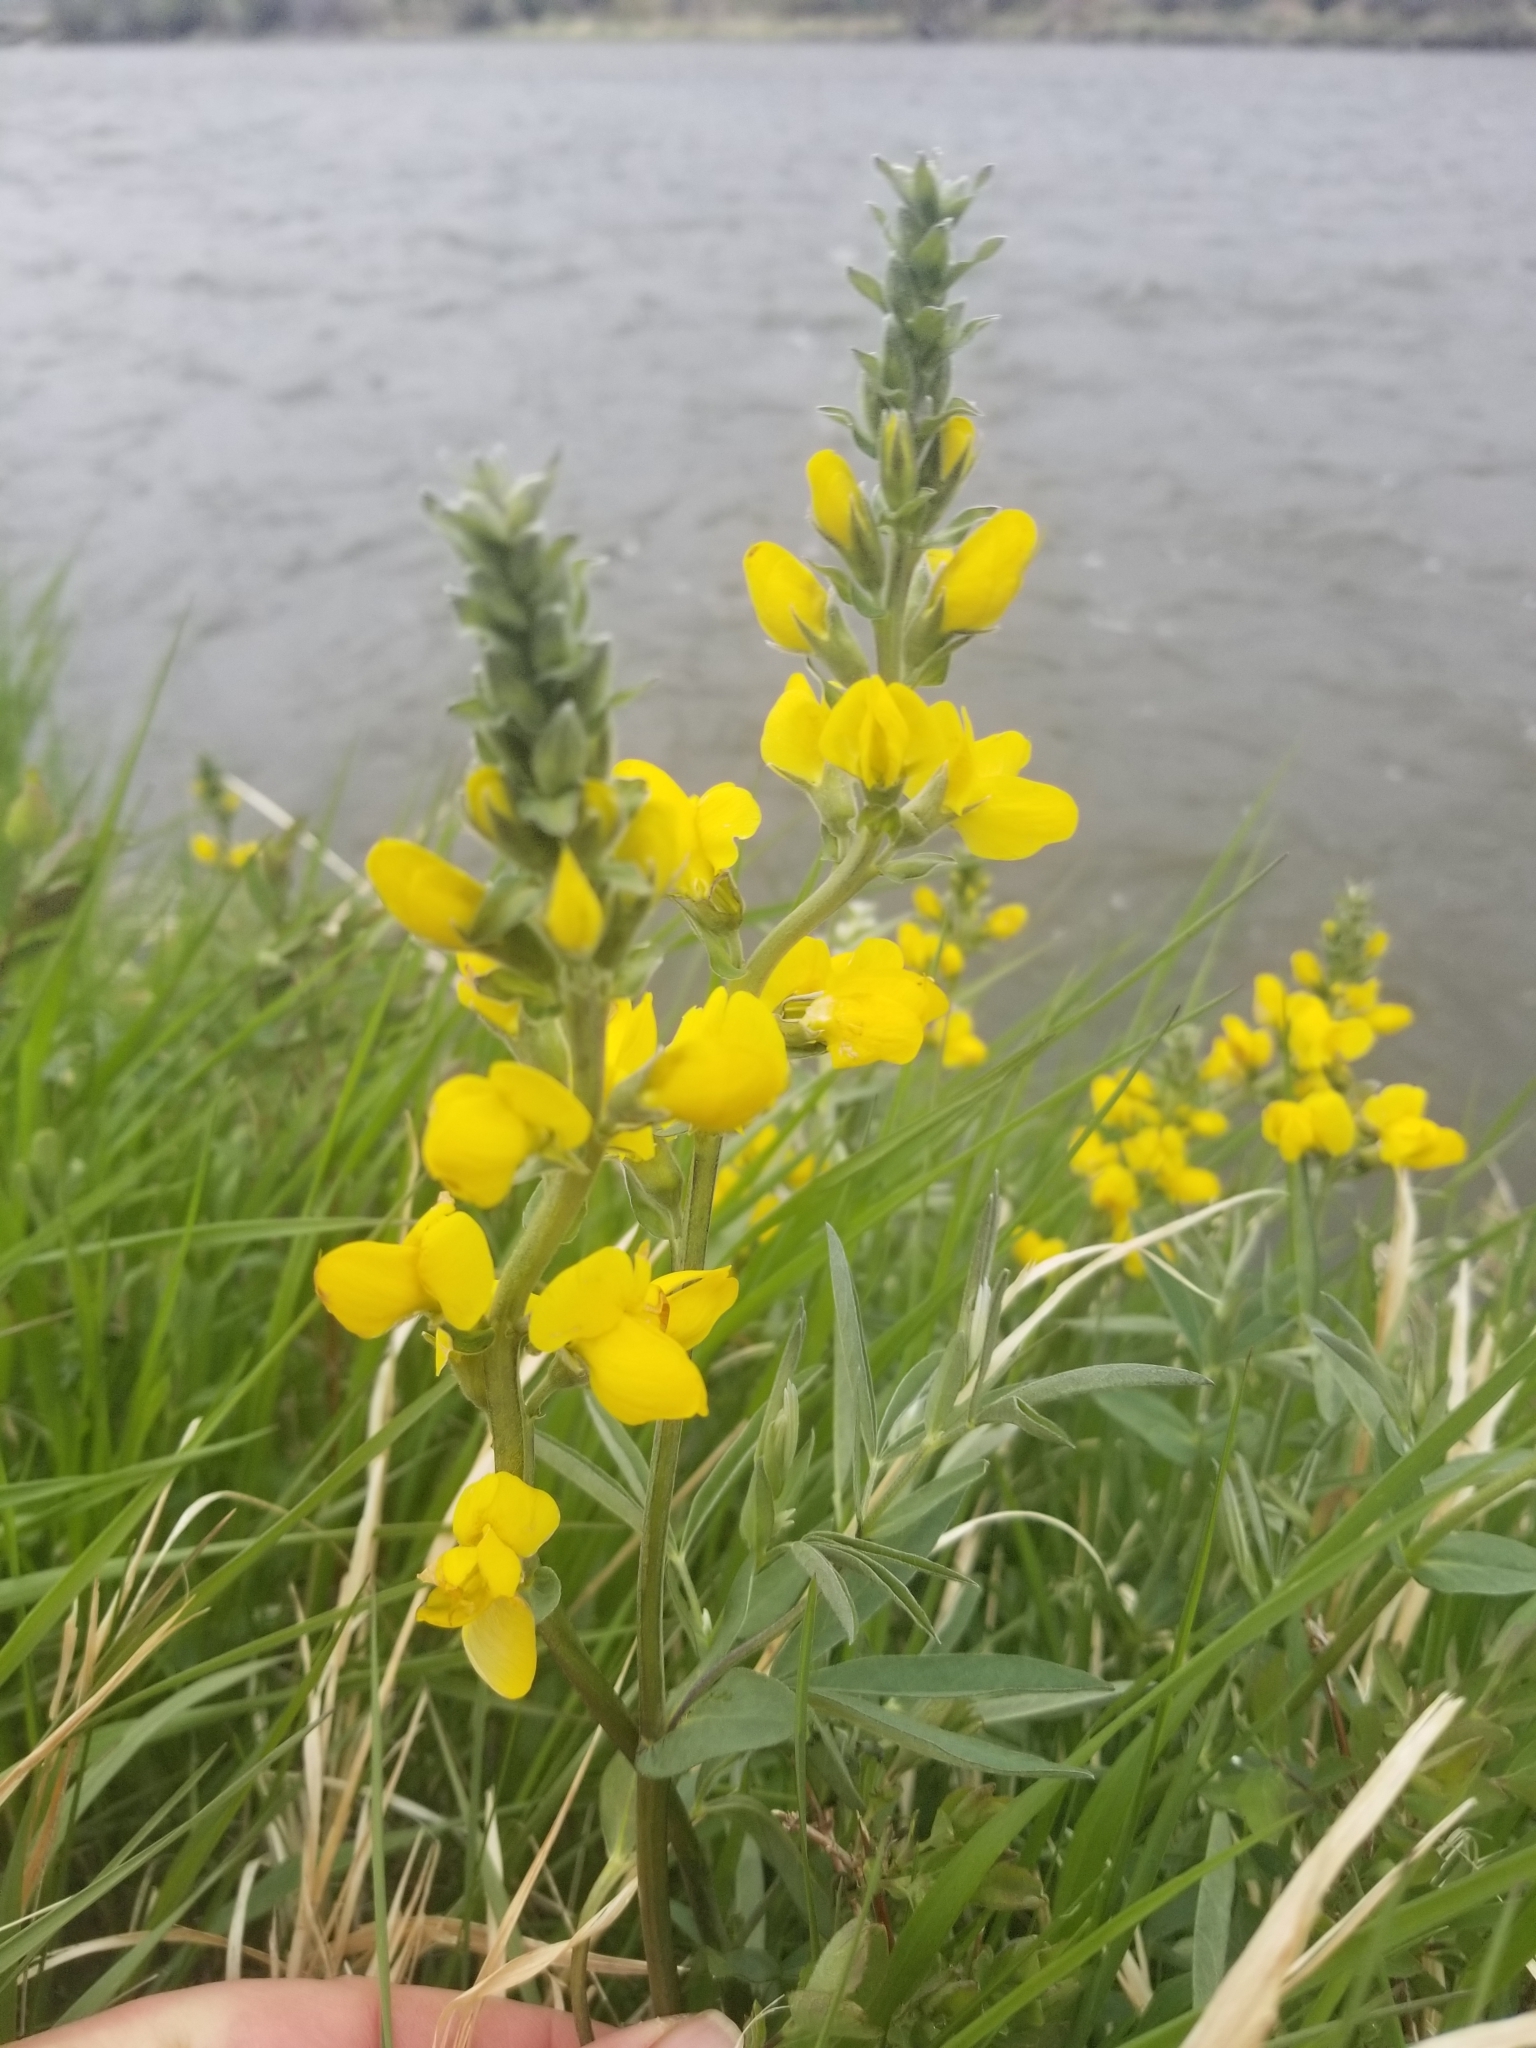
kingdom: Plantae
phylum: Tracheophyta
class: Magnoliopsida
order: Fabales
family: Fabaceae
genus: Thermopsis
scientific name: Thermopsis montana
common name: False lupin
